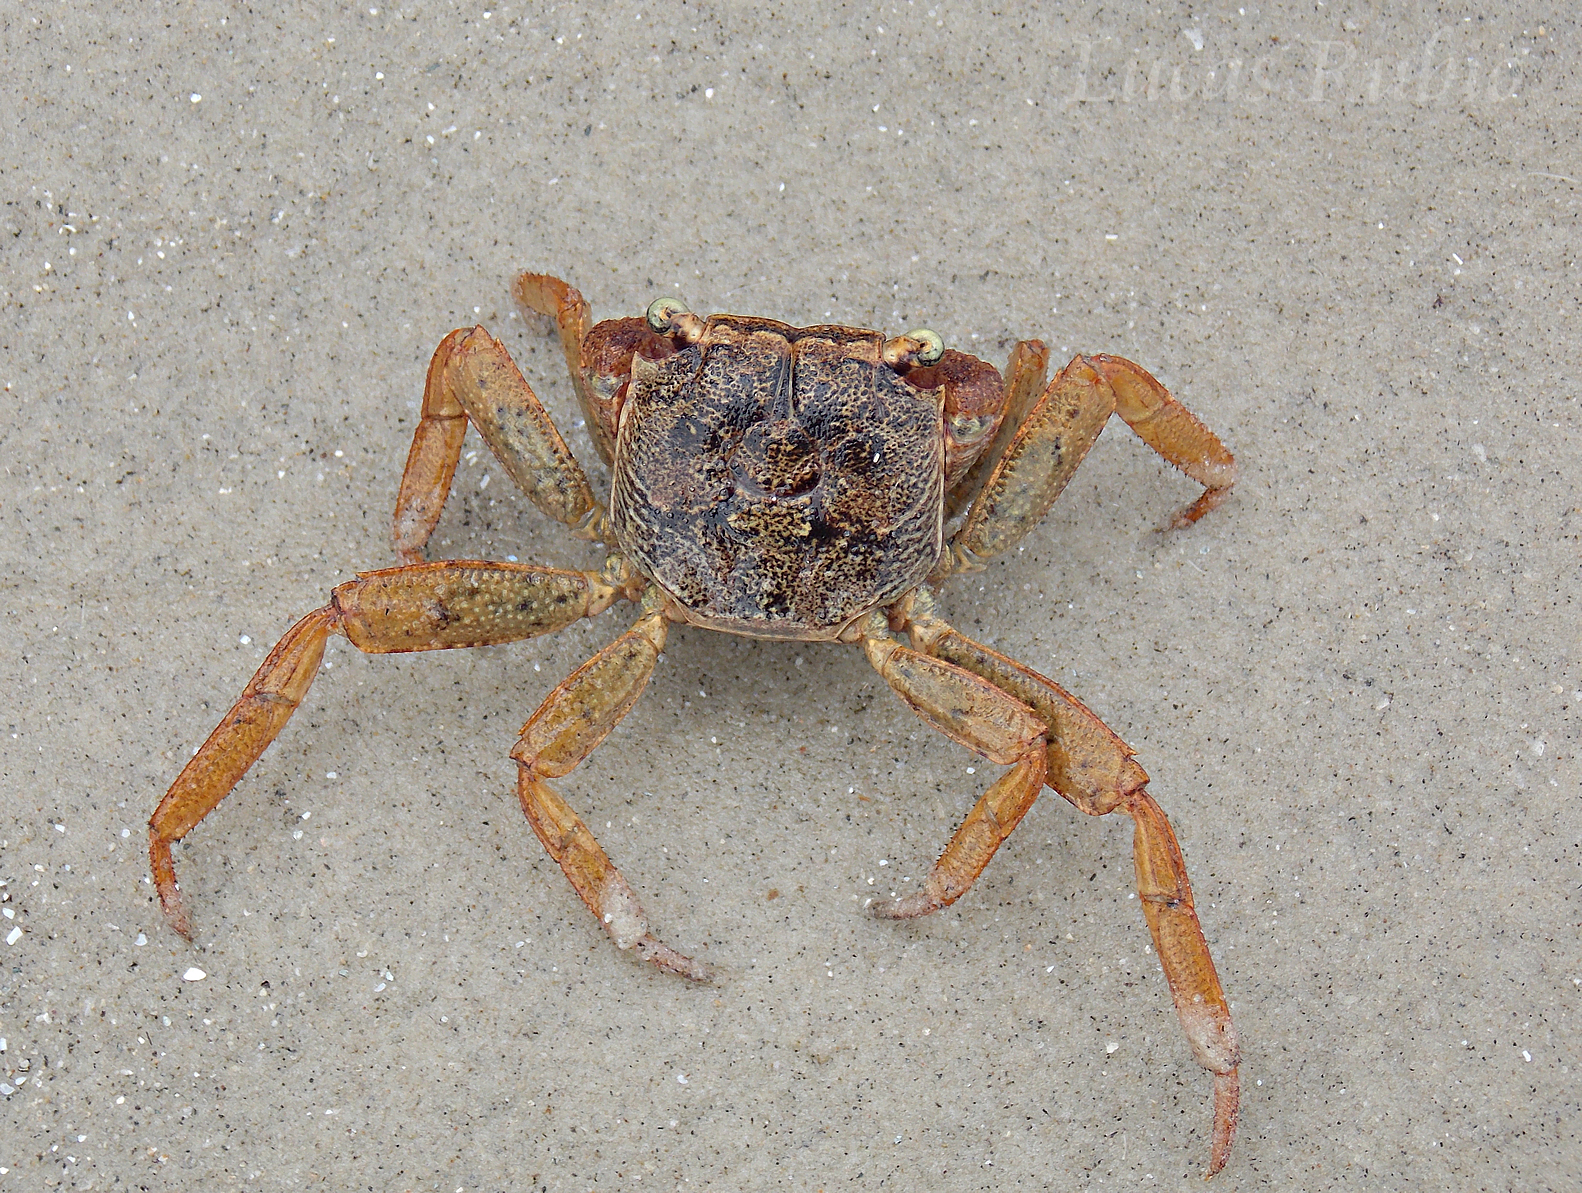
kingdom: Animalia
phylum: Arthropoda
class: Malacostraca
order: Decapoda
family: Sesarmidae
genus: Armases
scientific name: Armases angustipes
